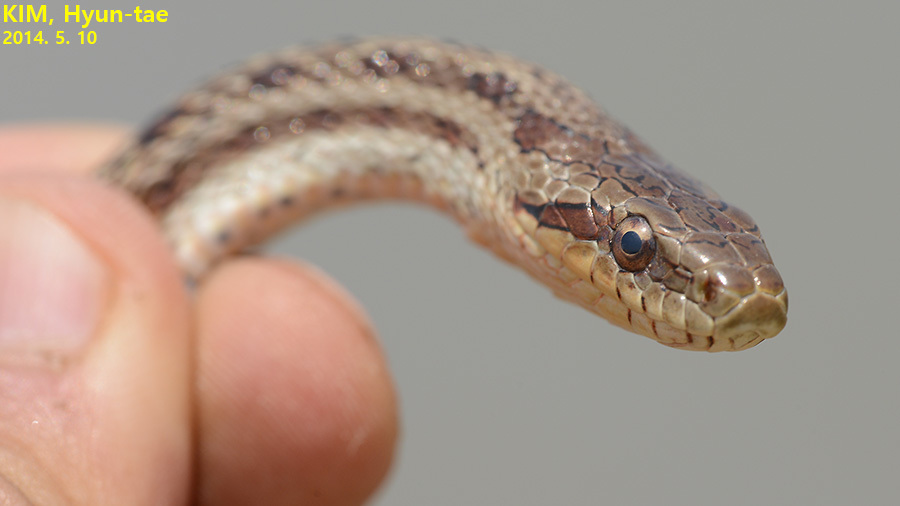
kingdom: Animalia
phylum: Chordata
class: Squamata
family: Colubridae
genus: Elaphe
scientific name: Elaphe dione
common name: Dione ratsnake
